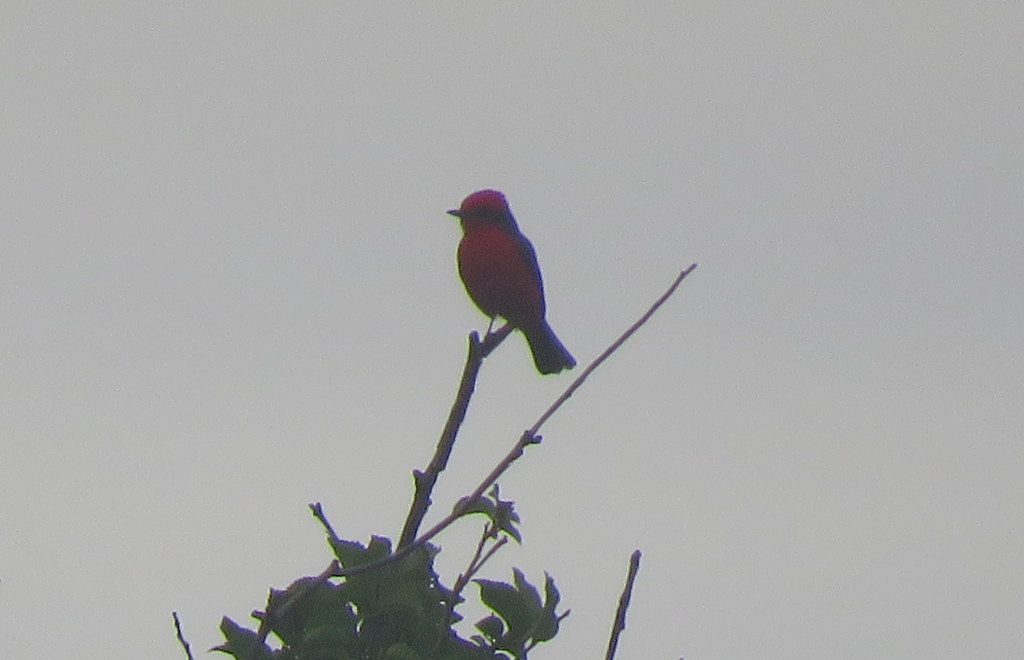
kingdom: Animalia
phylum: Chordata
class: Aves
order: Passeriformes
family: Tyrannidae
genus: Pyrocephalus
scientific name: Pyrocephalus rubinus
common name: Vermilion flycatcher
